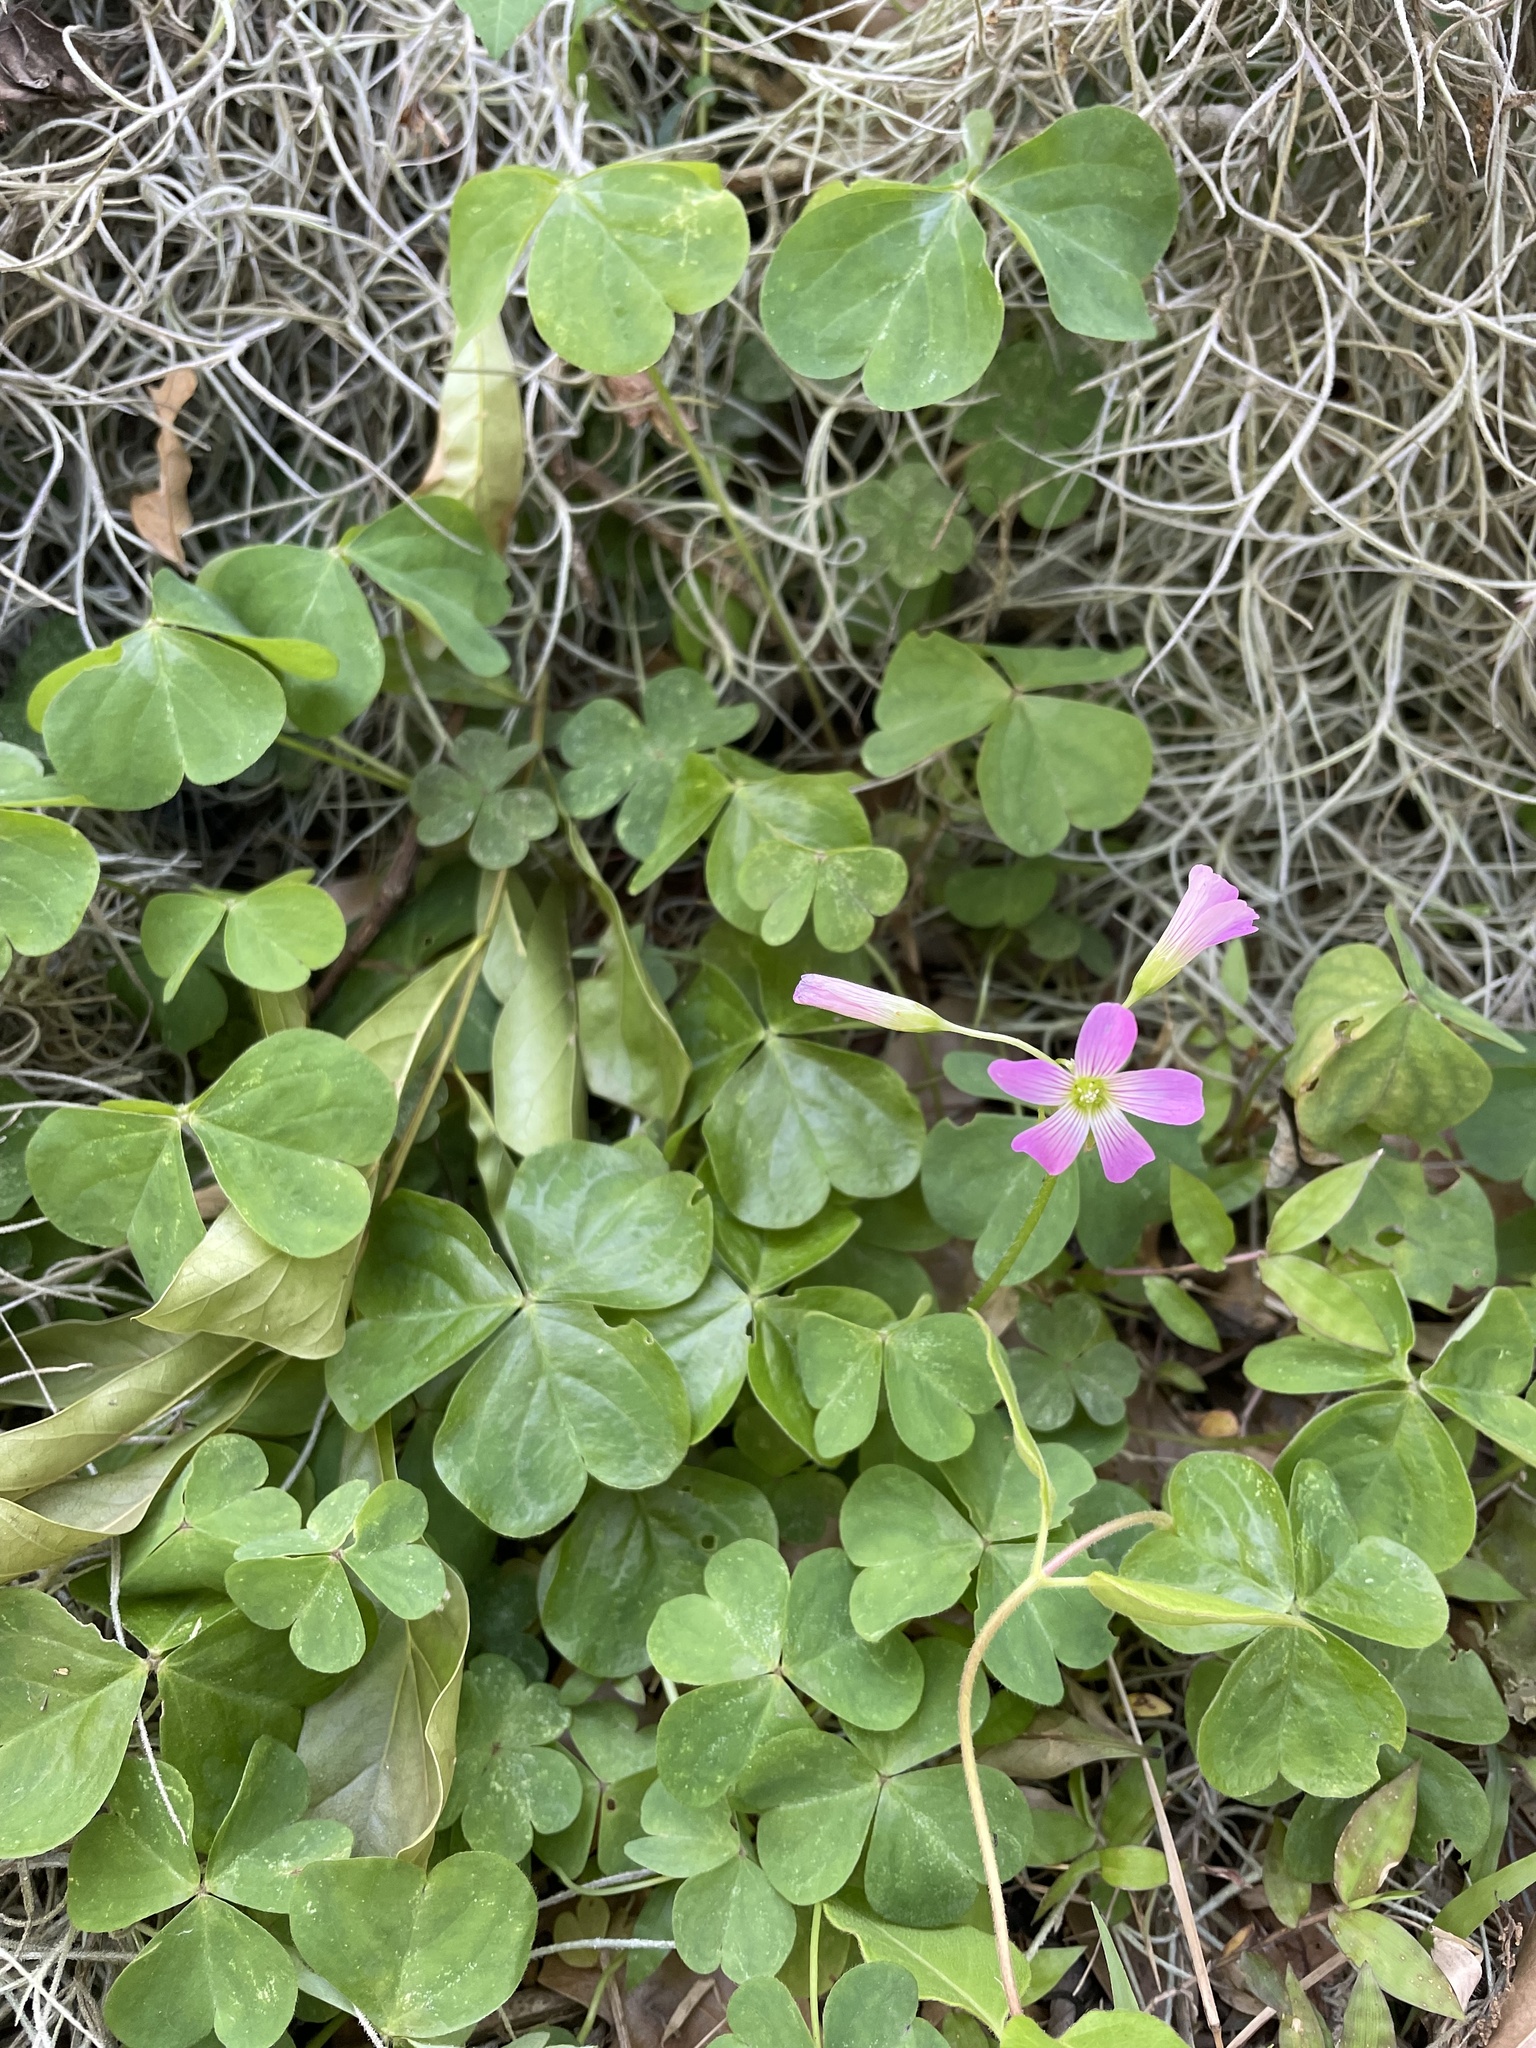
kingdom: Plantae
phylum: Tracheophyta
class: Magnoliopsida
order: Oxalidales
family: Oxalidaceae
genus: Oxalis
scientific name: Oxalis debilis
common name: Large-flowered pink-sorrel
